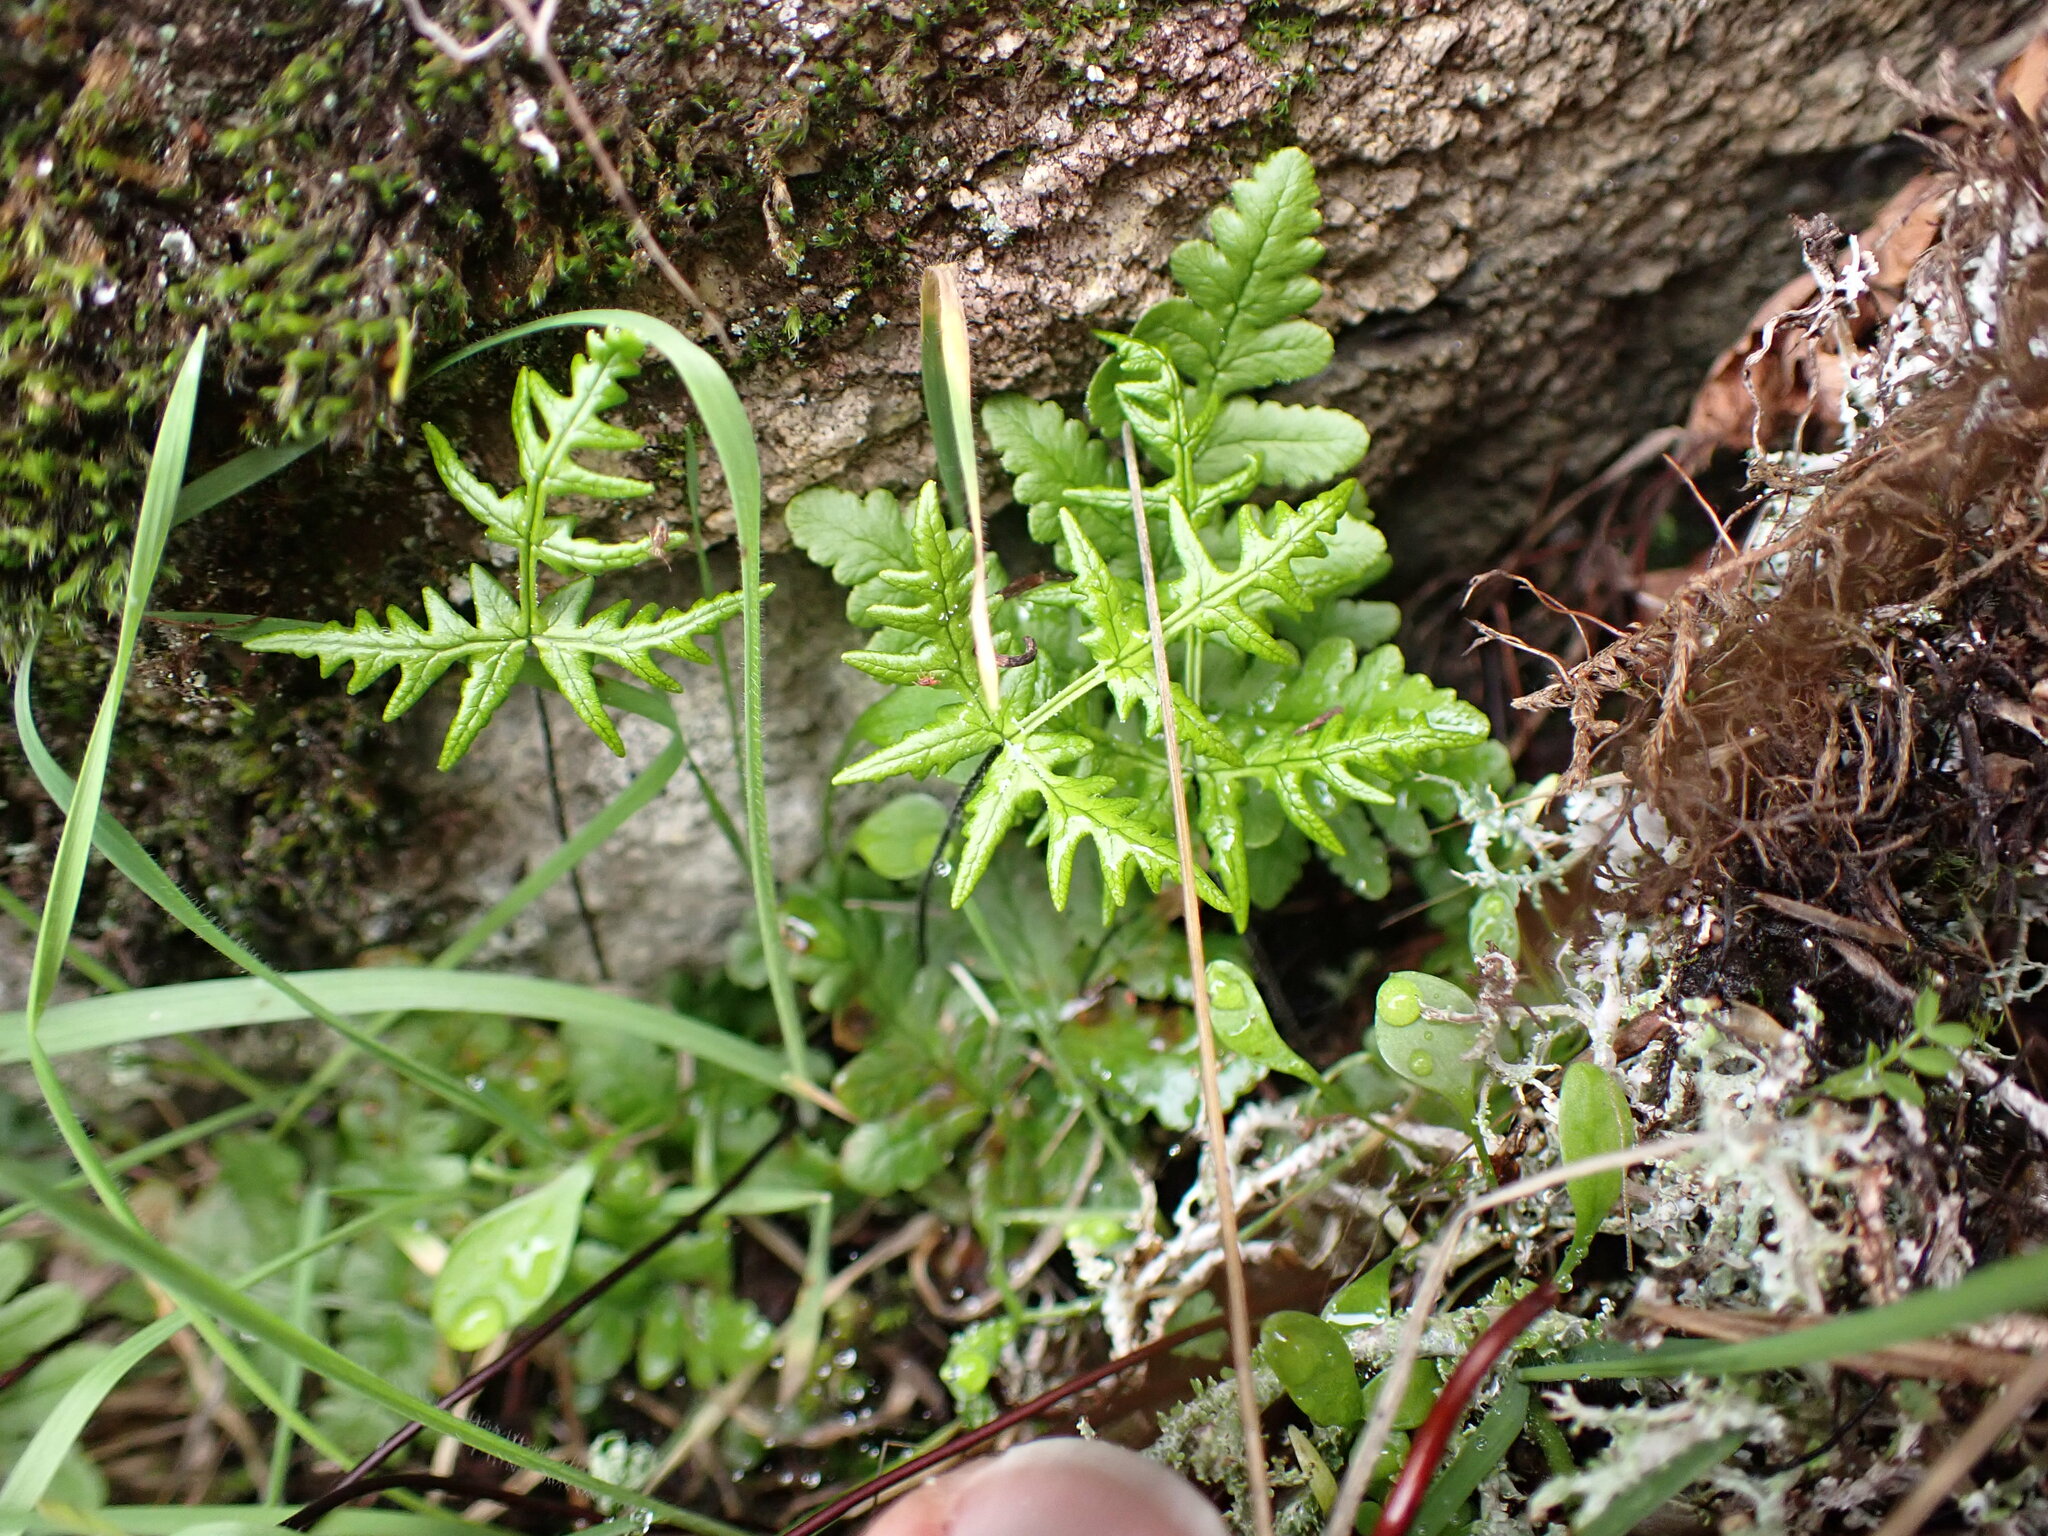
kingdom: Plantae
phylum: Tracheophyta
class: Polypodiopsida
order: Polypodiales
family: Pteridaceae
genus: Pentagramma
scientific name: Pentagramma triangularis
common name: Gold fern
